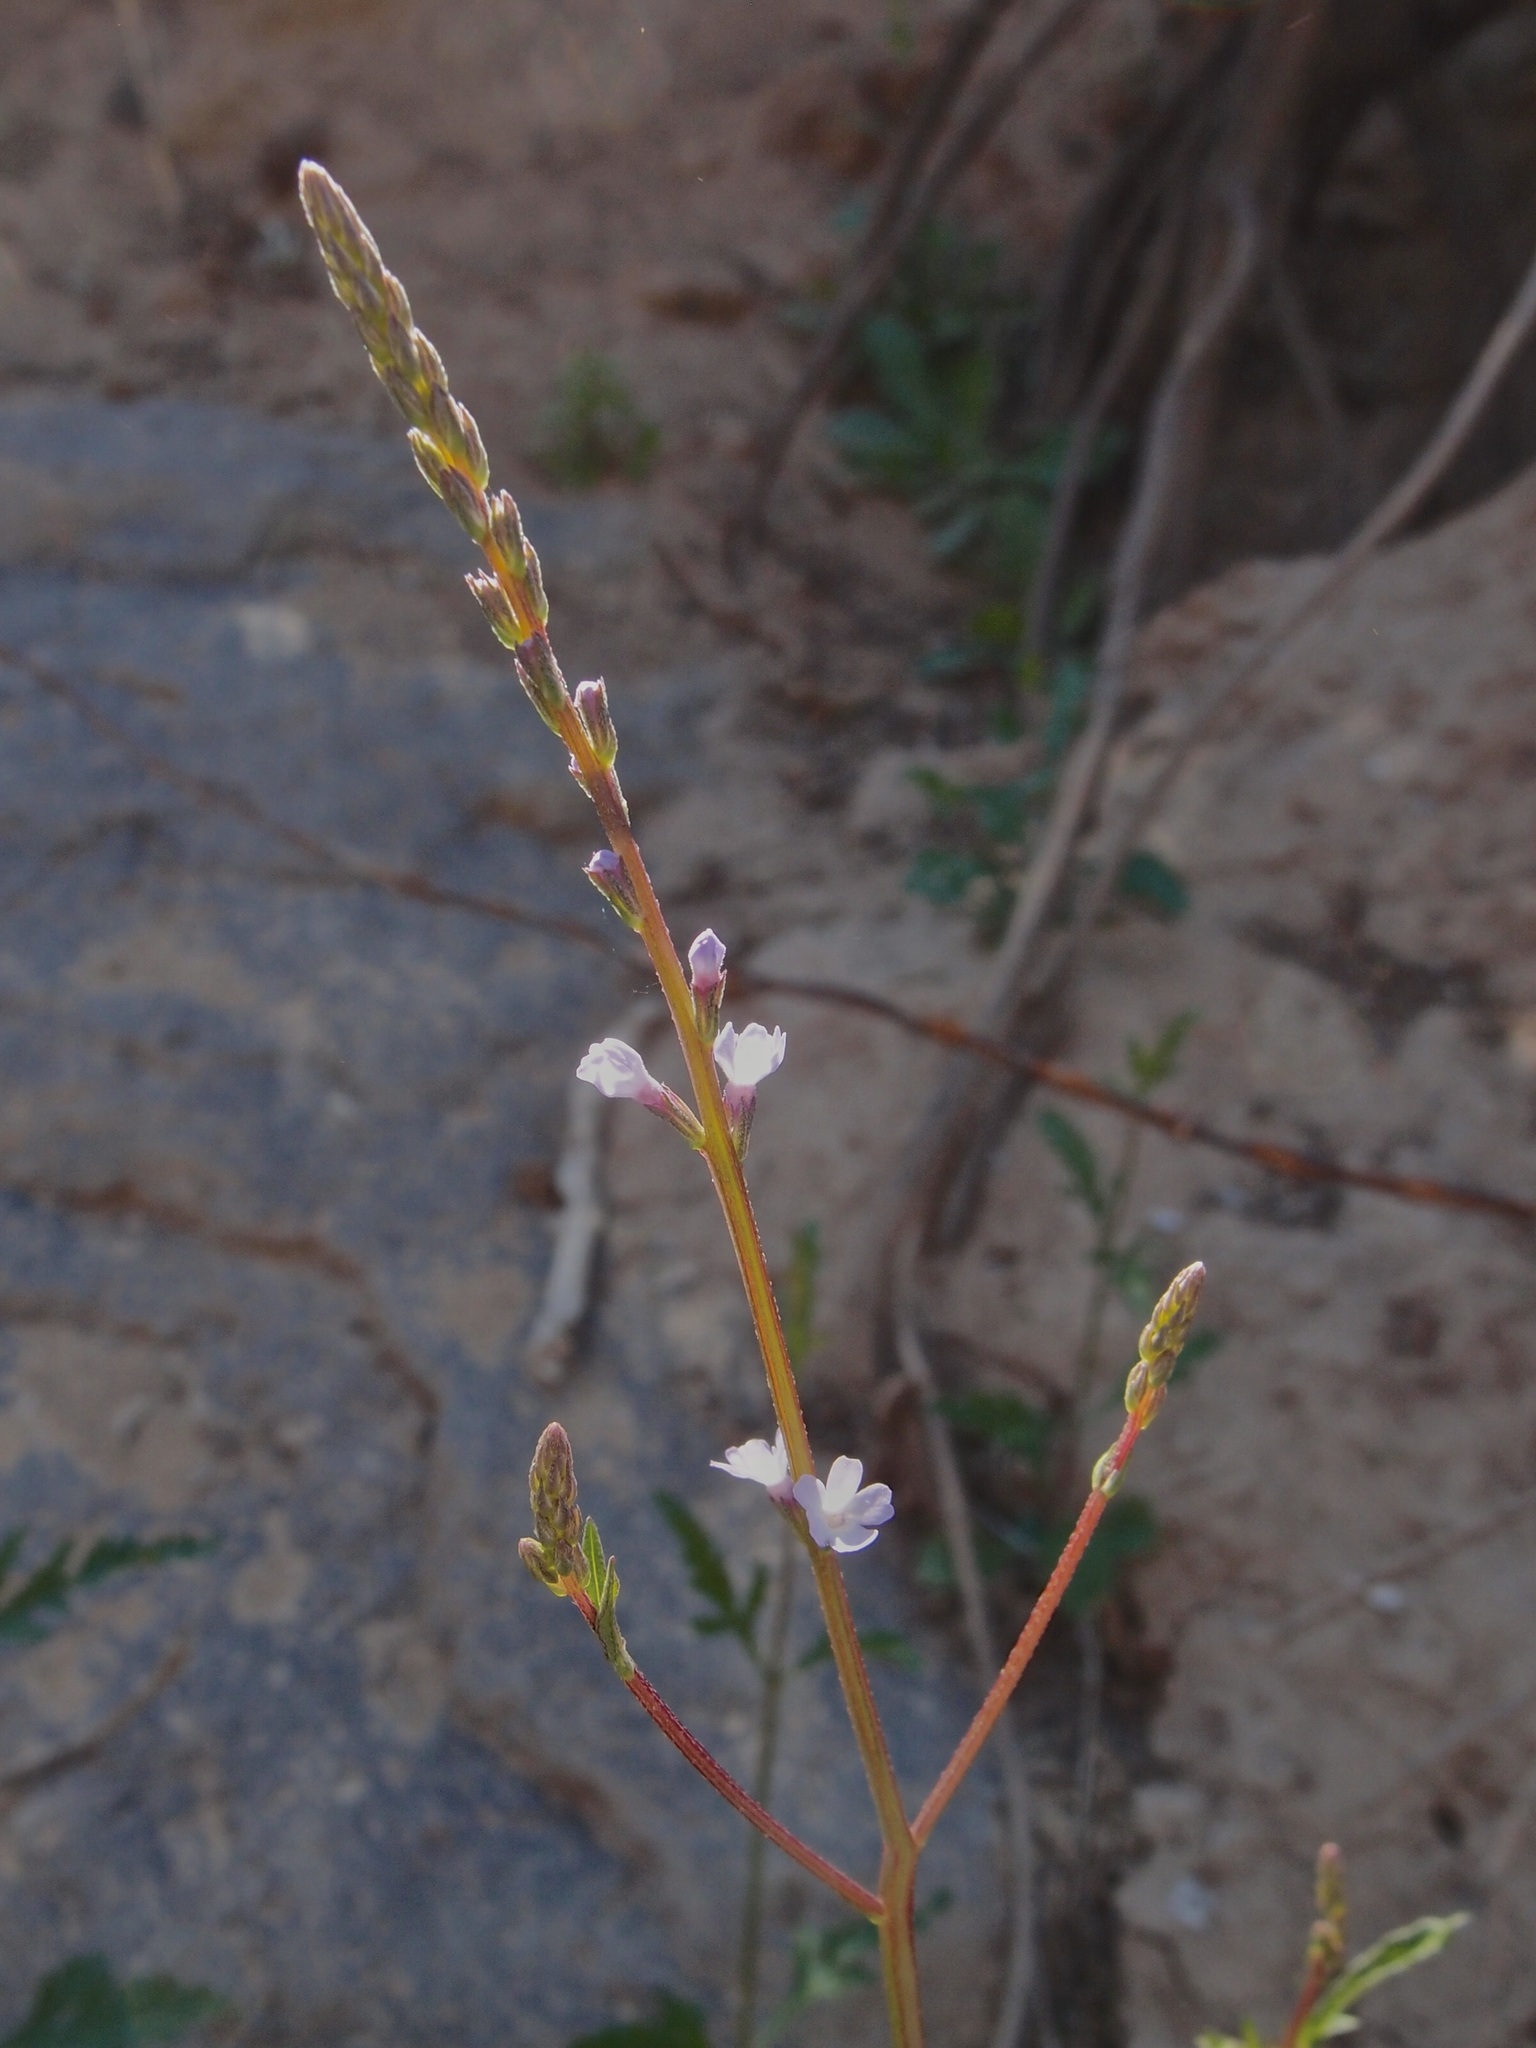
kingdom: Plantae
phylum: Tracheophyta
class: Magnoliopsida
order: Lamiales
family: Verbenaceae
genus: Verbena
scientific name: Verbena menthifolia
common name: Mint-leaf vervain
